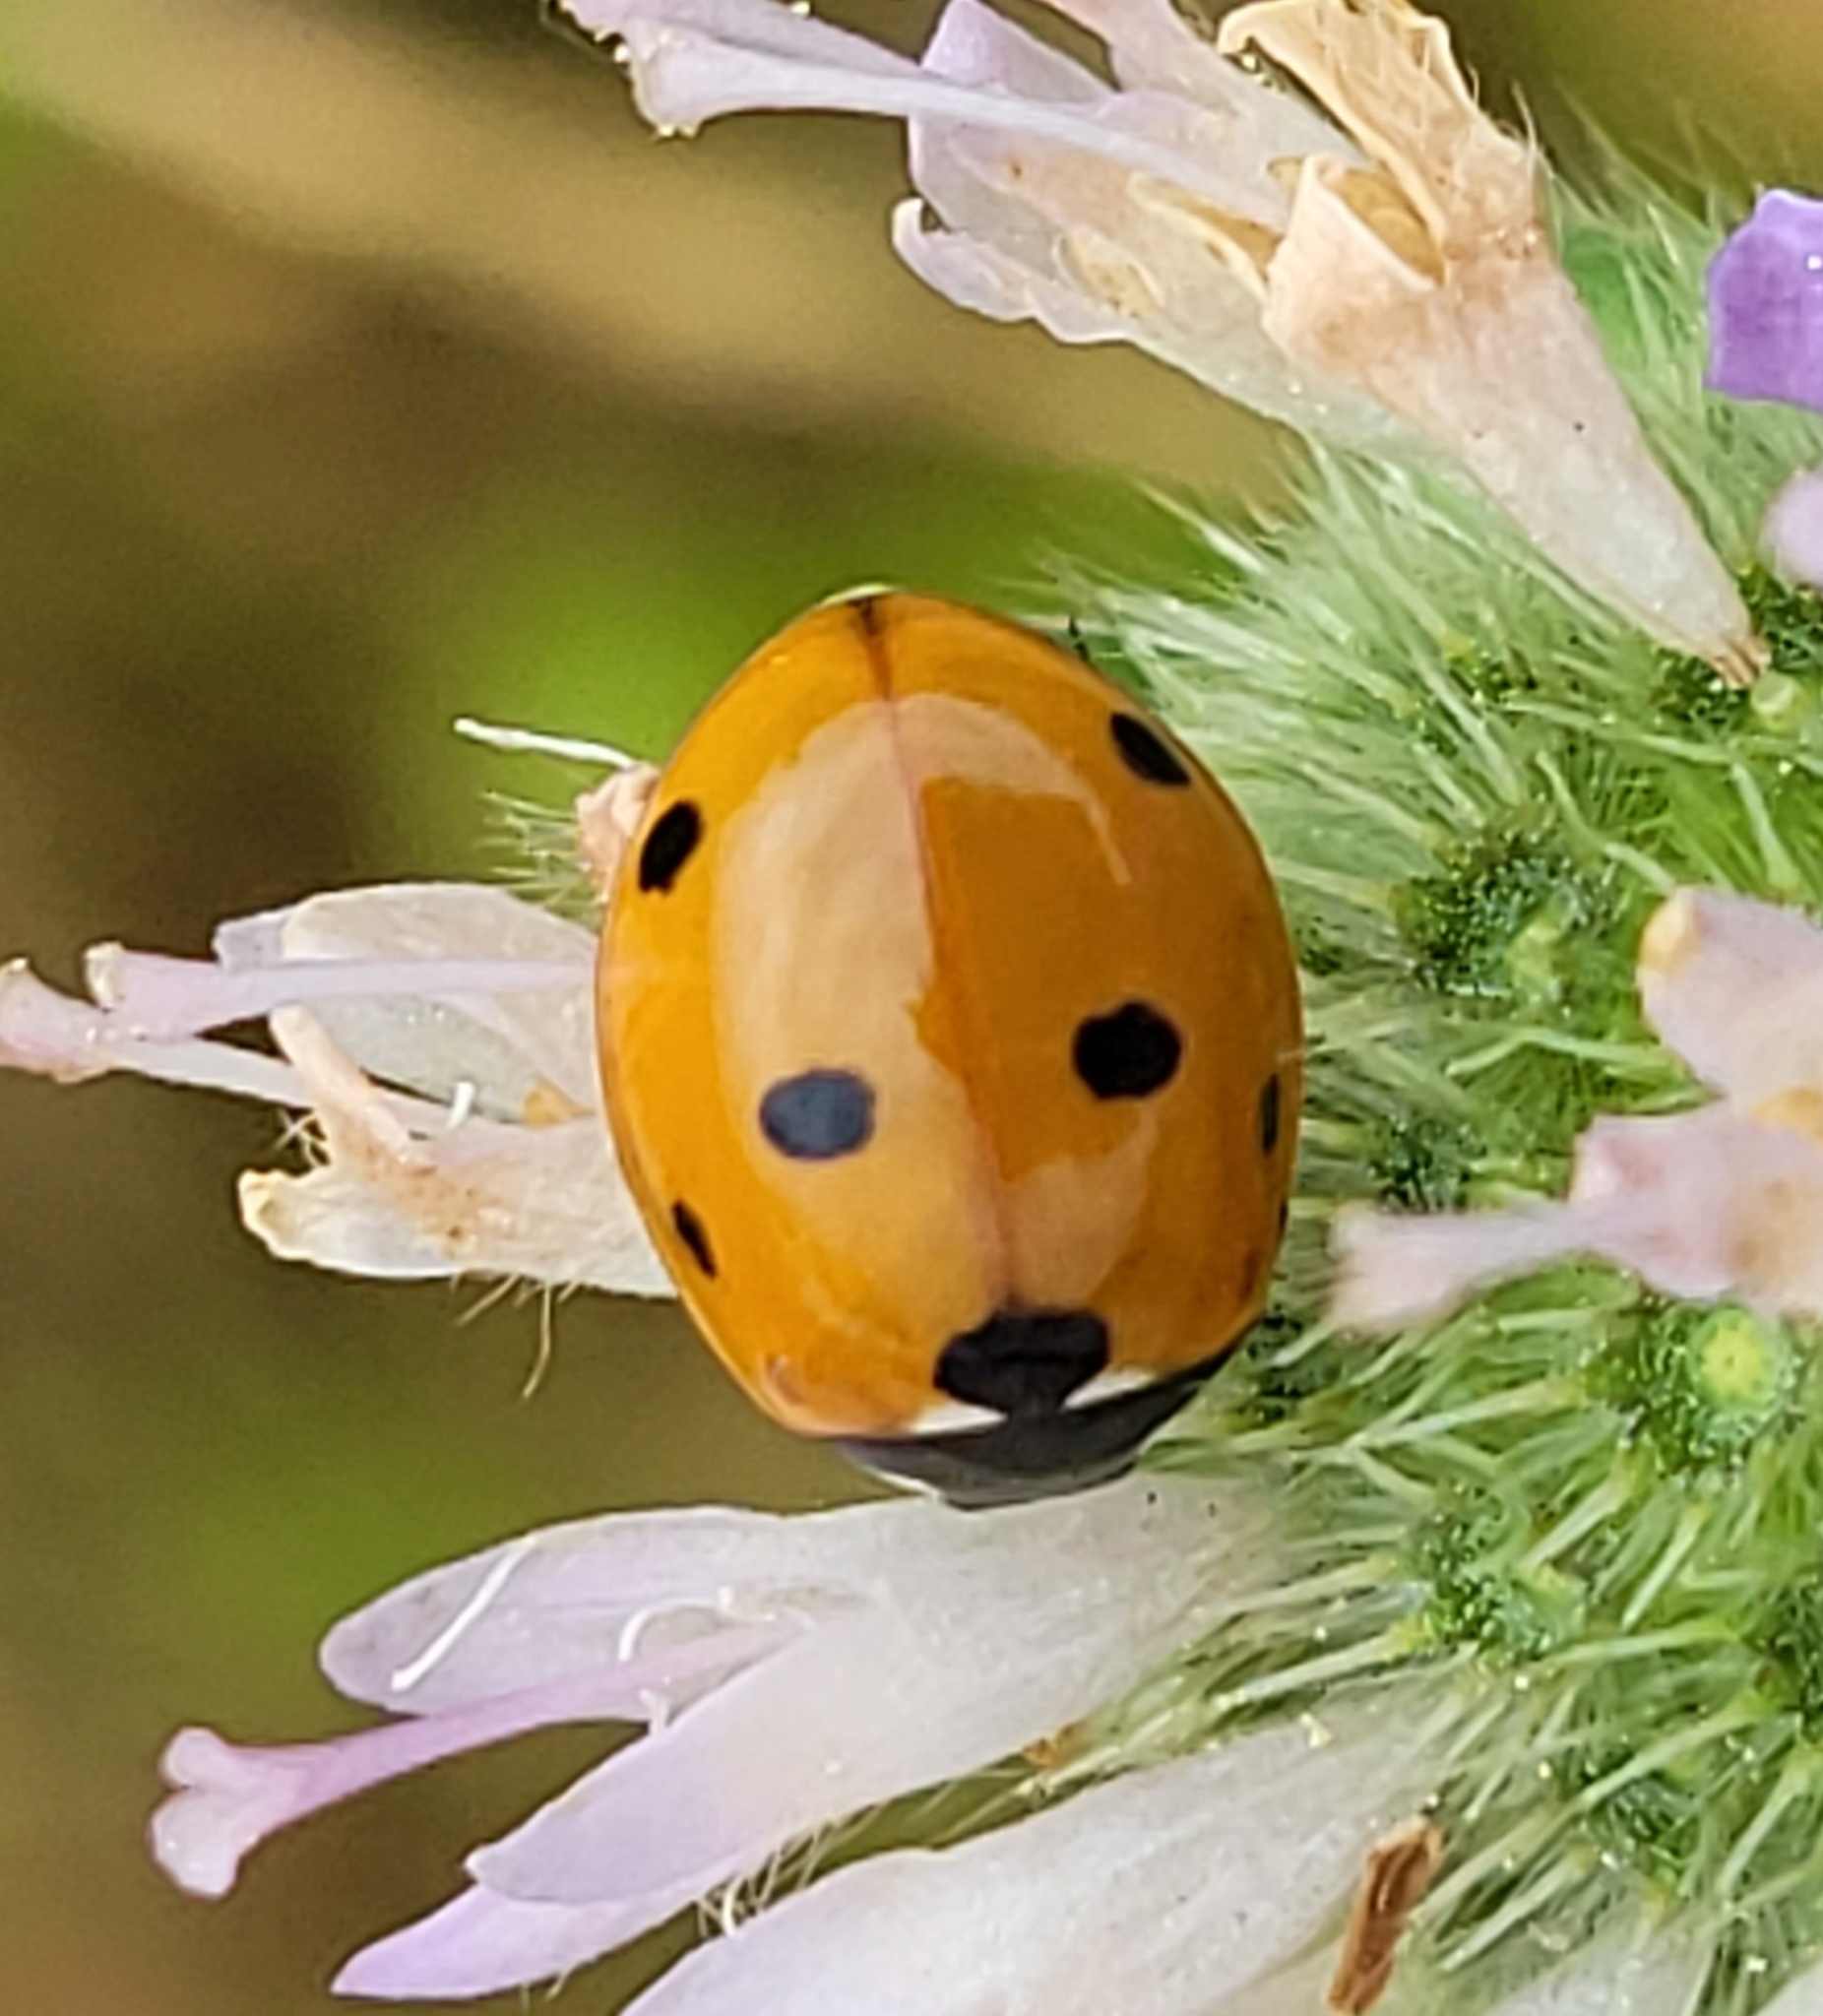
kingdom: Animalia
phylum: Arthropoda
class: Insecta
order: Coleoptera
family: Coccinellidae
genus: Coccinella
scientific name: Coccinella septempunctata
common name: Sevenspotted lady beetle
